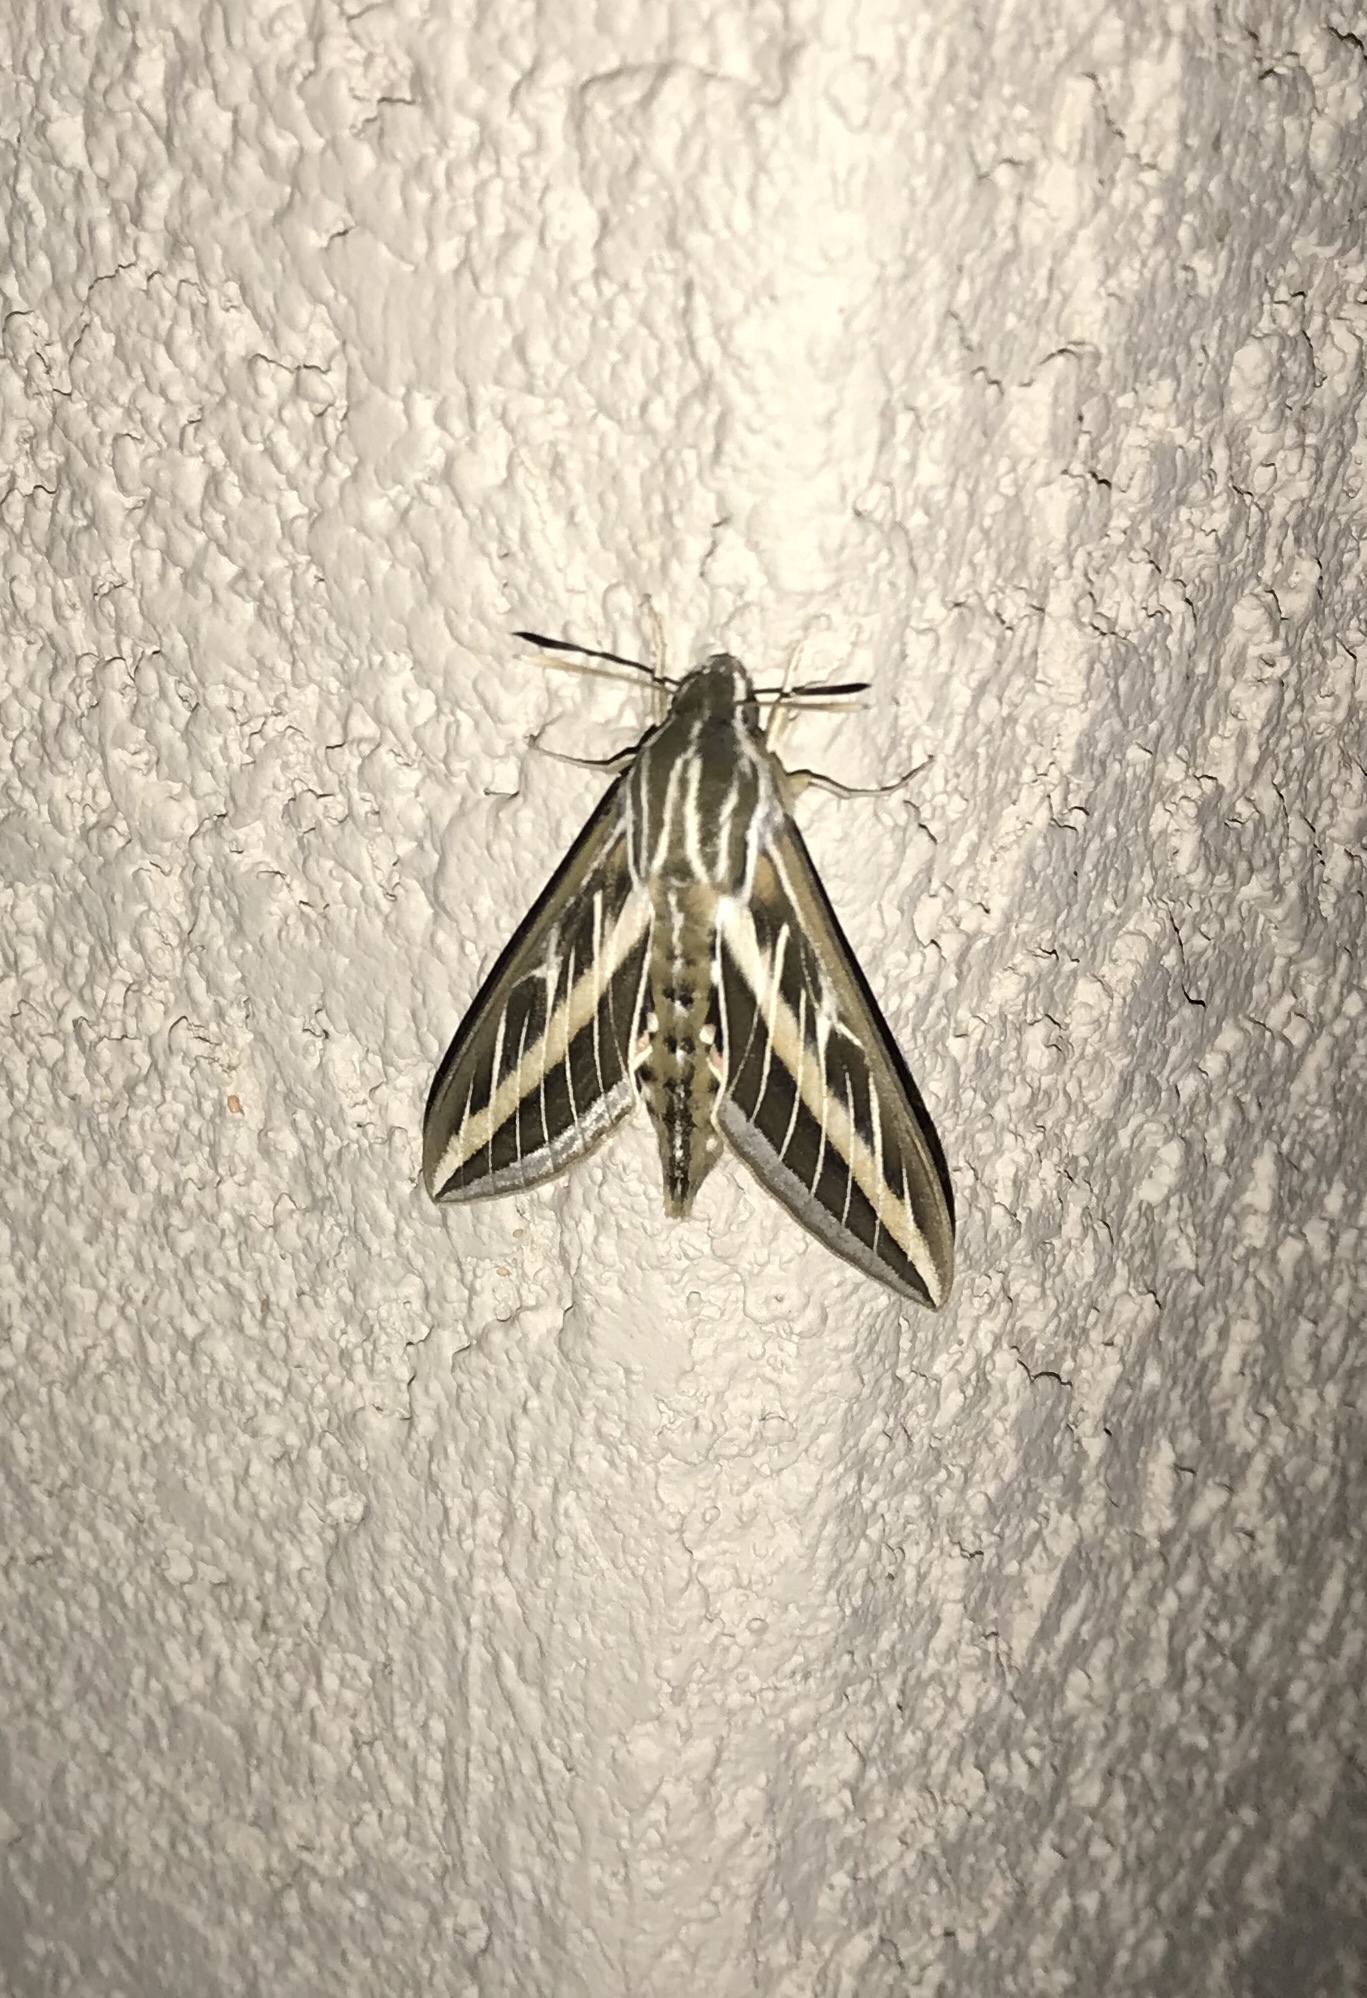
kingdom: Animalia
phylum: Arthropoda
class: Insecta
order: Lepidoptera
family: Sphingidae
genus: Hyles
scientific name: Hyles lineata
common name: White-lined sphinx
